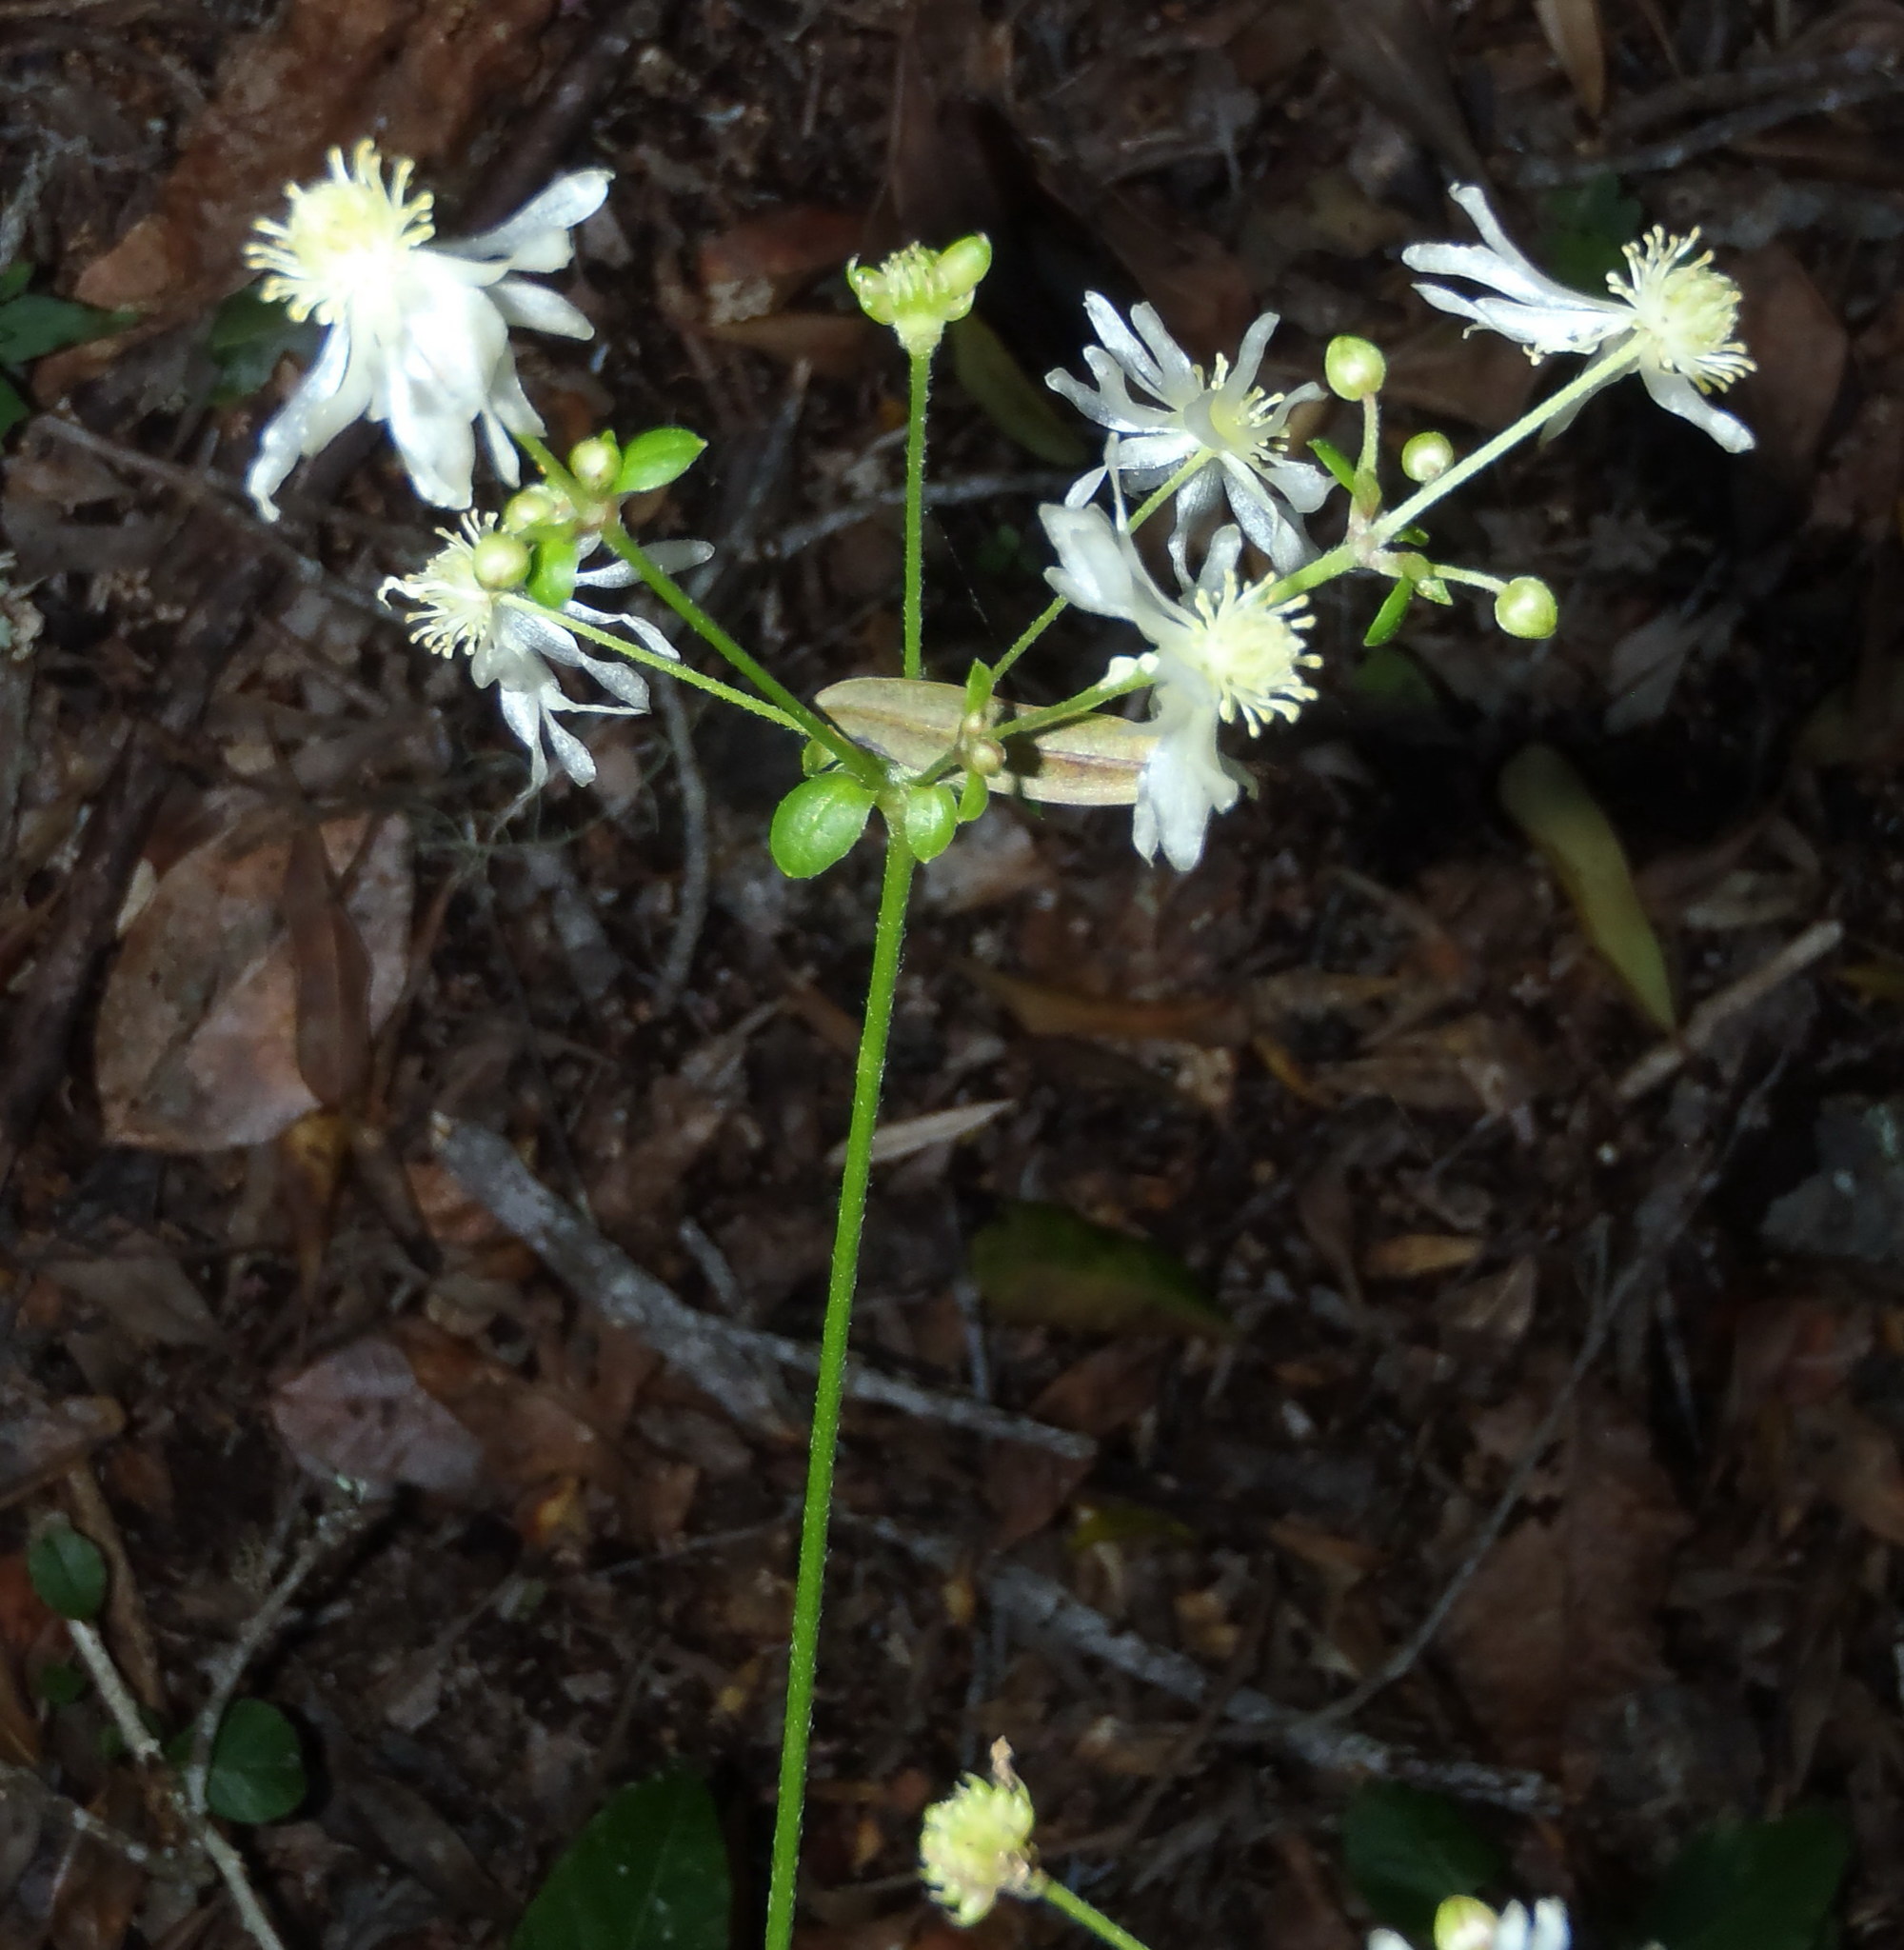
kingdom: Plantae
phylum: Tracheophyta
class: Magnoliopsida
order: Ranunculales
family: Ranunculaceae
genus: Knowltonia
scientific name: Knowltonia vesicatoria
